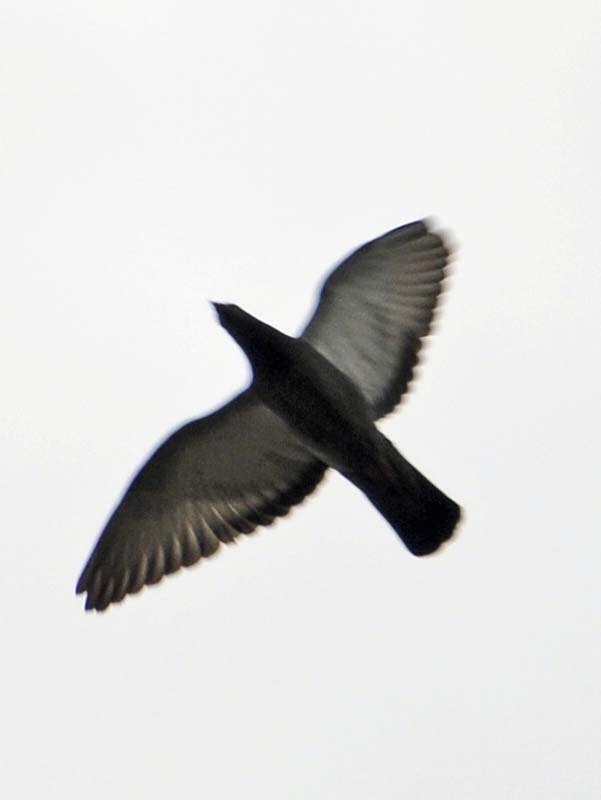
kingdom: Animalia
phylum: Chordata
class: Aves
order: Columbiformes
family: Columbidae
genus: Columba
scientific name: Columba livia
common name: Rock pigeon
